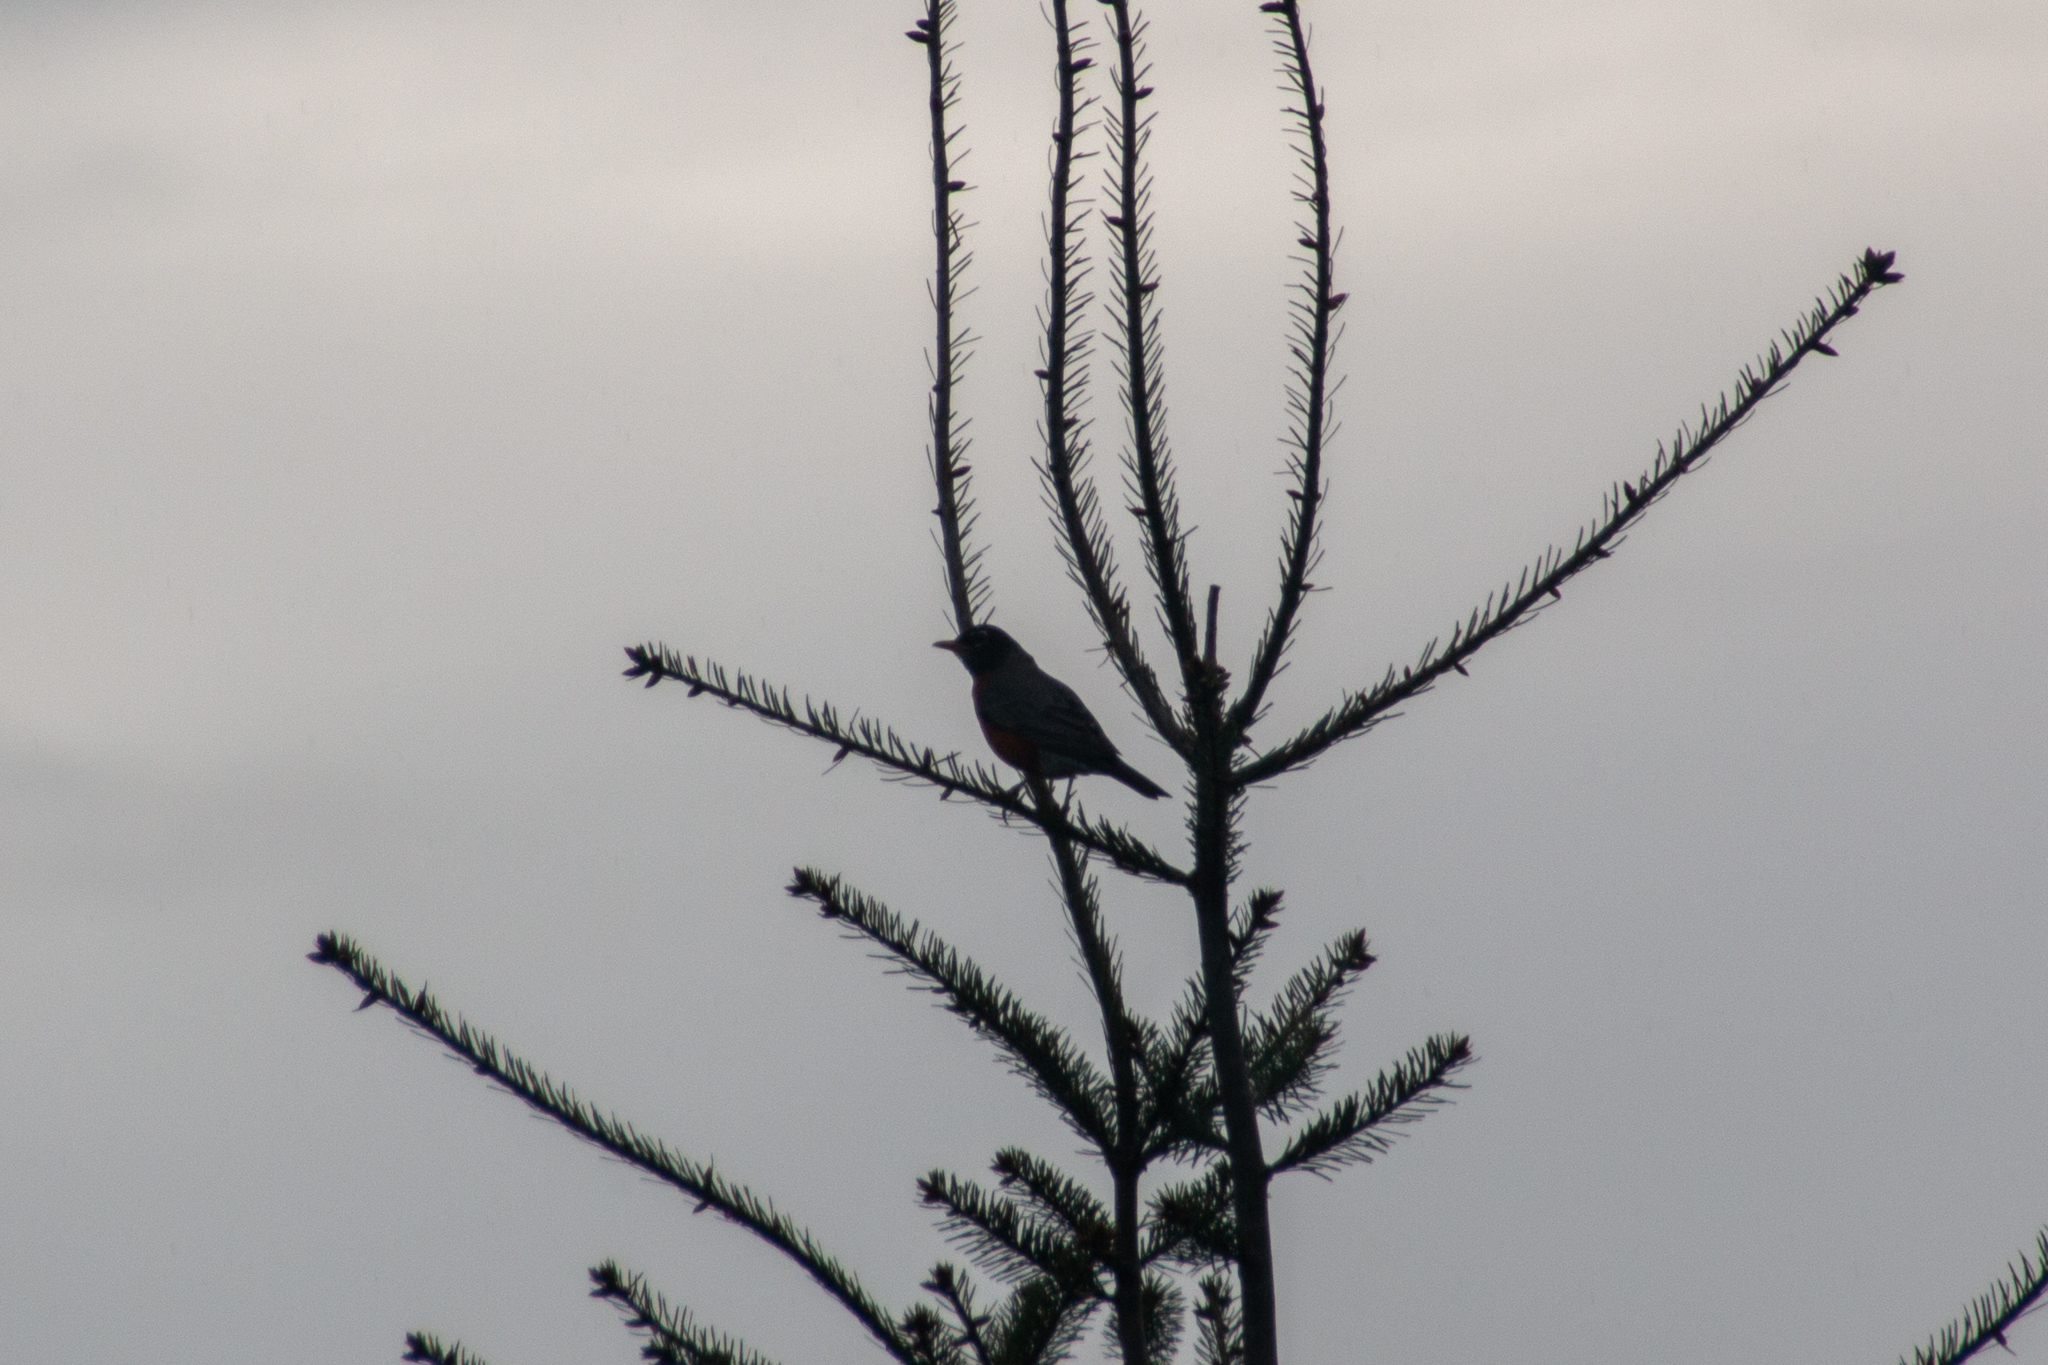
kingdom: Animalia
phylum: Chordata
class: Aves
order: Passeriformes
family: Turdidae
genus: Turdus
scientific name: Turdus migratorius
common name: American robin
